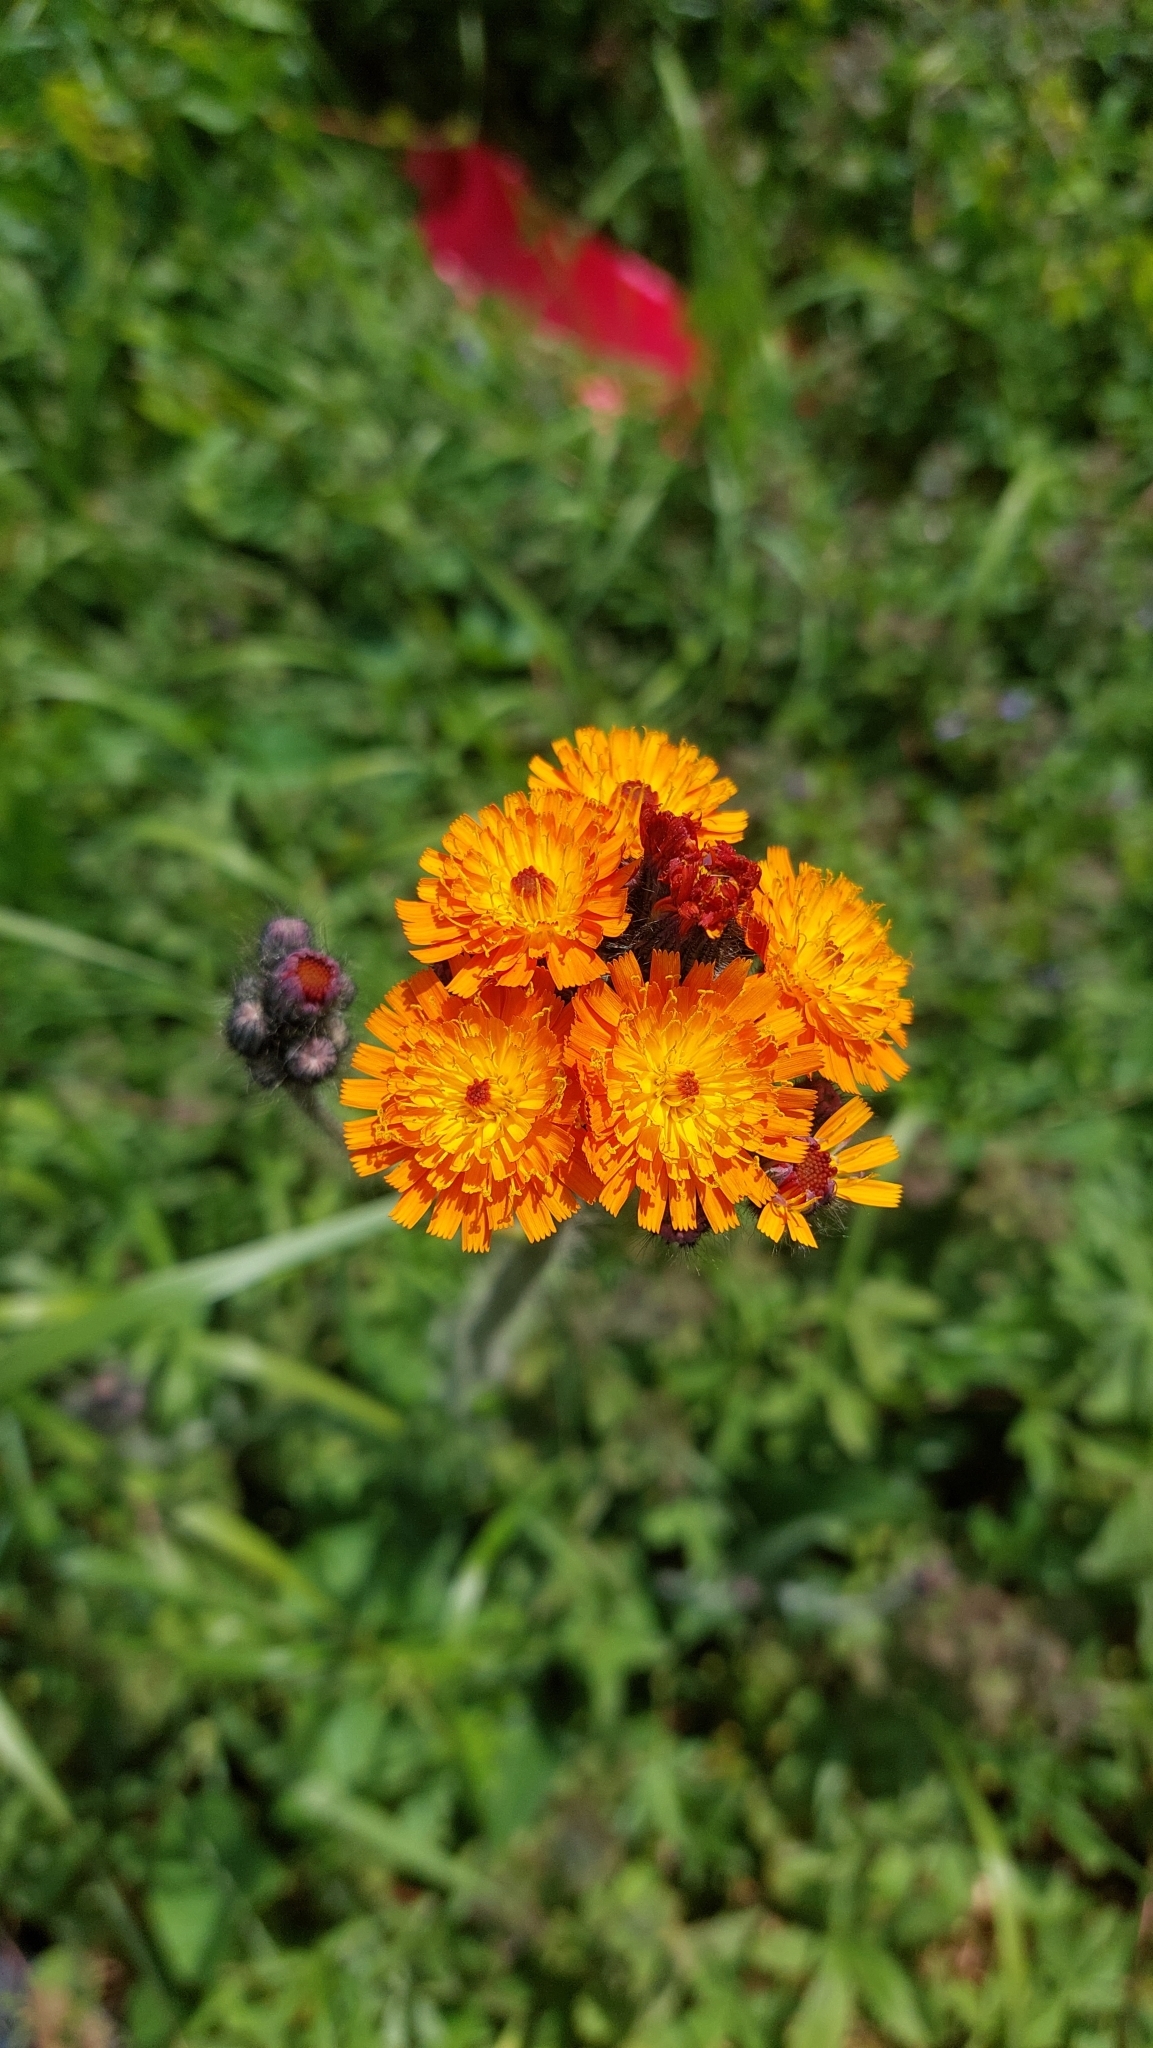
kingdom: Plantae
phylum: Tracheophyta
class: Magnoliopsida
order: Asterales
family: Asteraceae
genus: Pilosella
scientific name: Pilosella aurantiaca
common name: Fox-and-cubs
